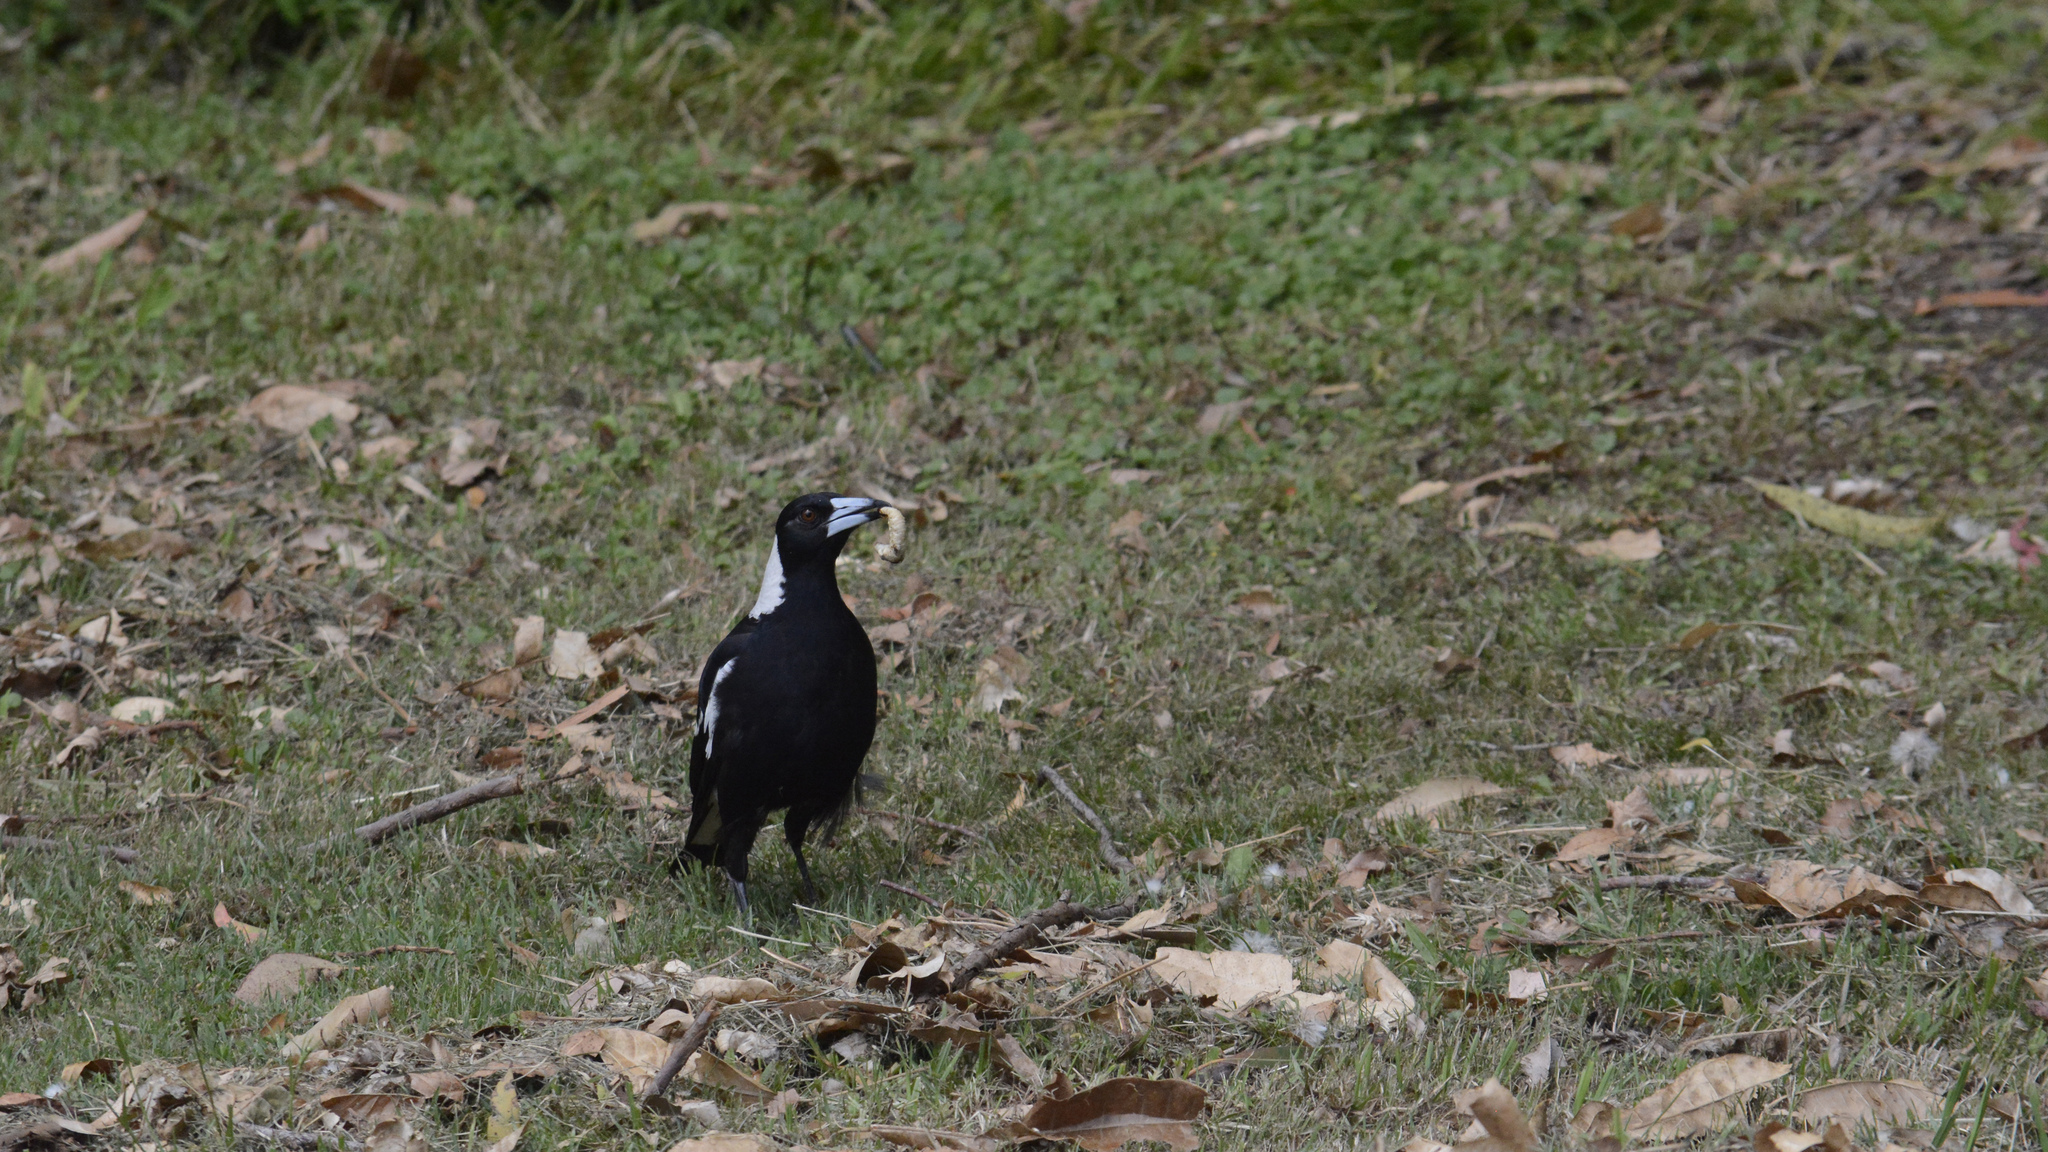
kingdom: Animalia
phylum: Chordata
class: Aves
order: Passeriformes
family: Cracticidae
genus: Gymnorhina
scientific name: Gymnorhina tibicen
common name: Australian magpie
